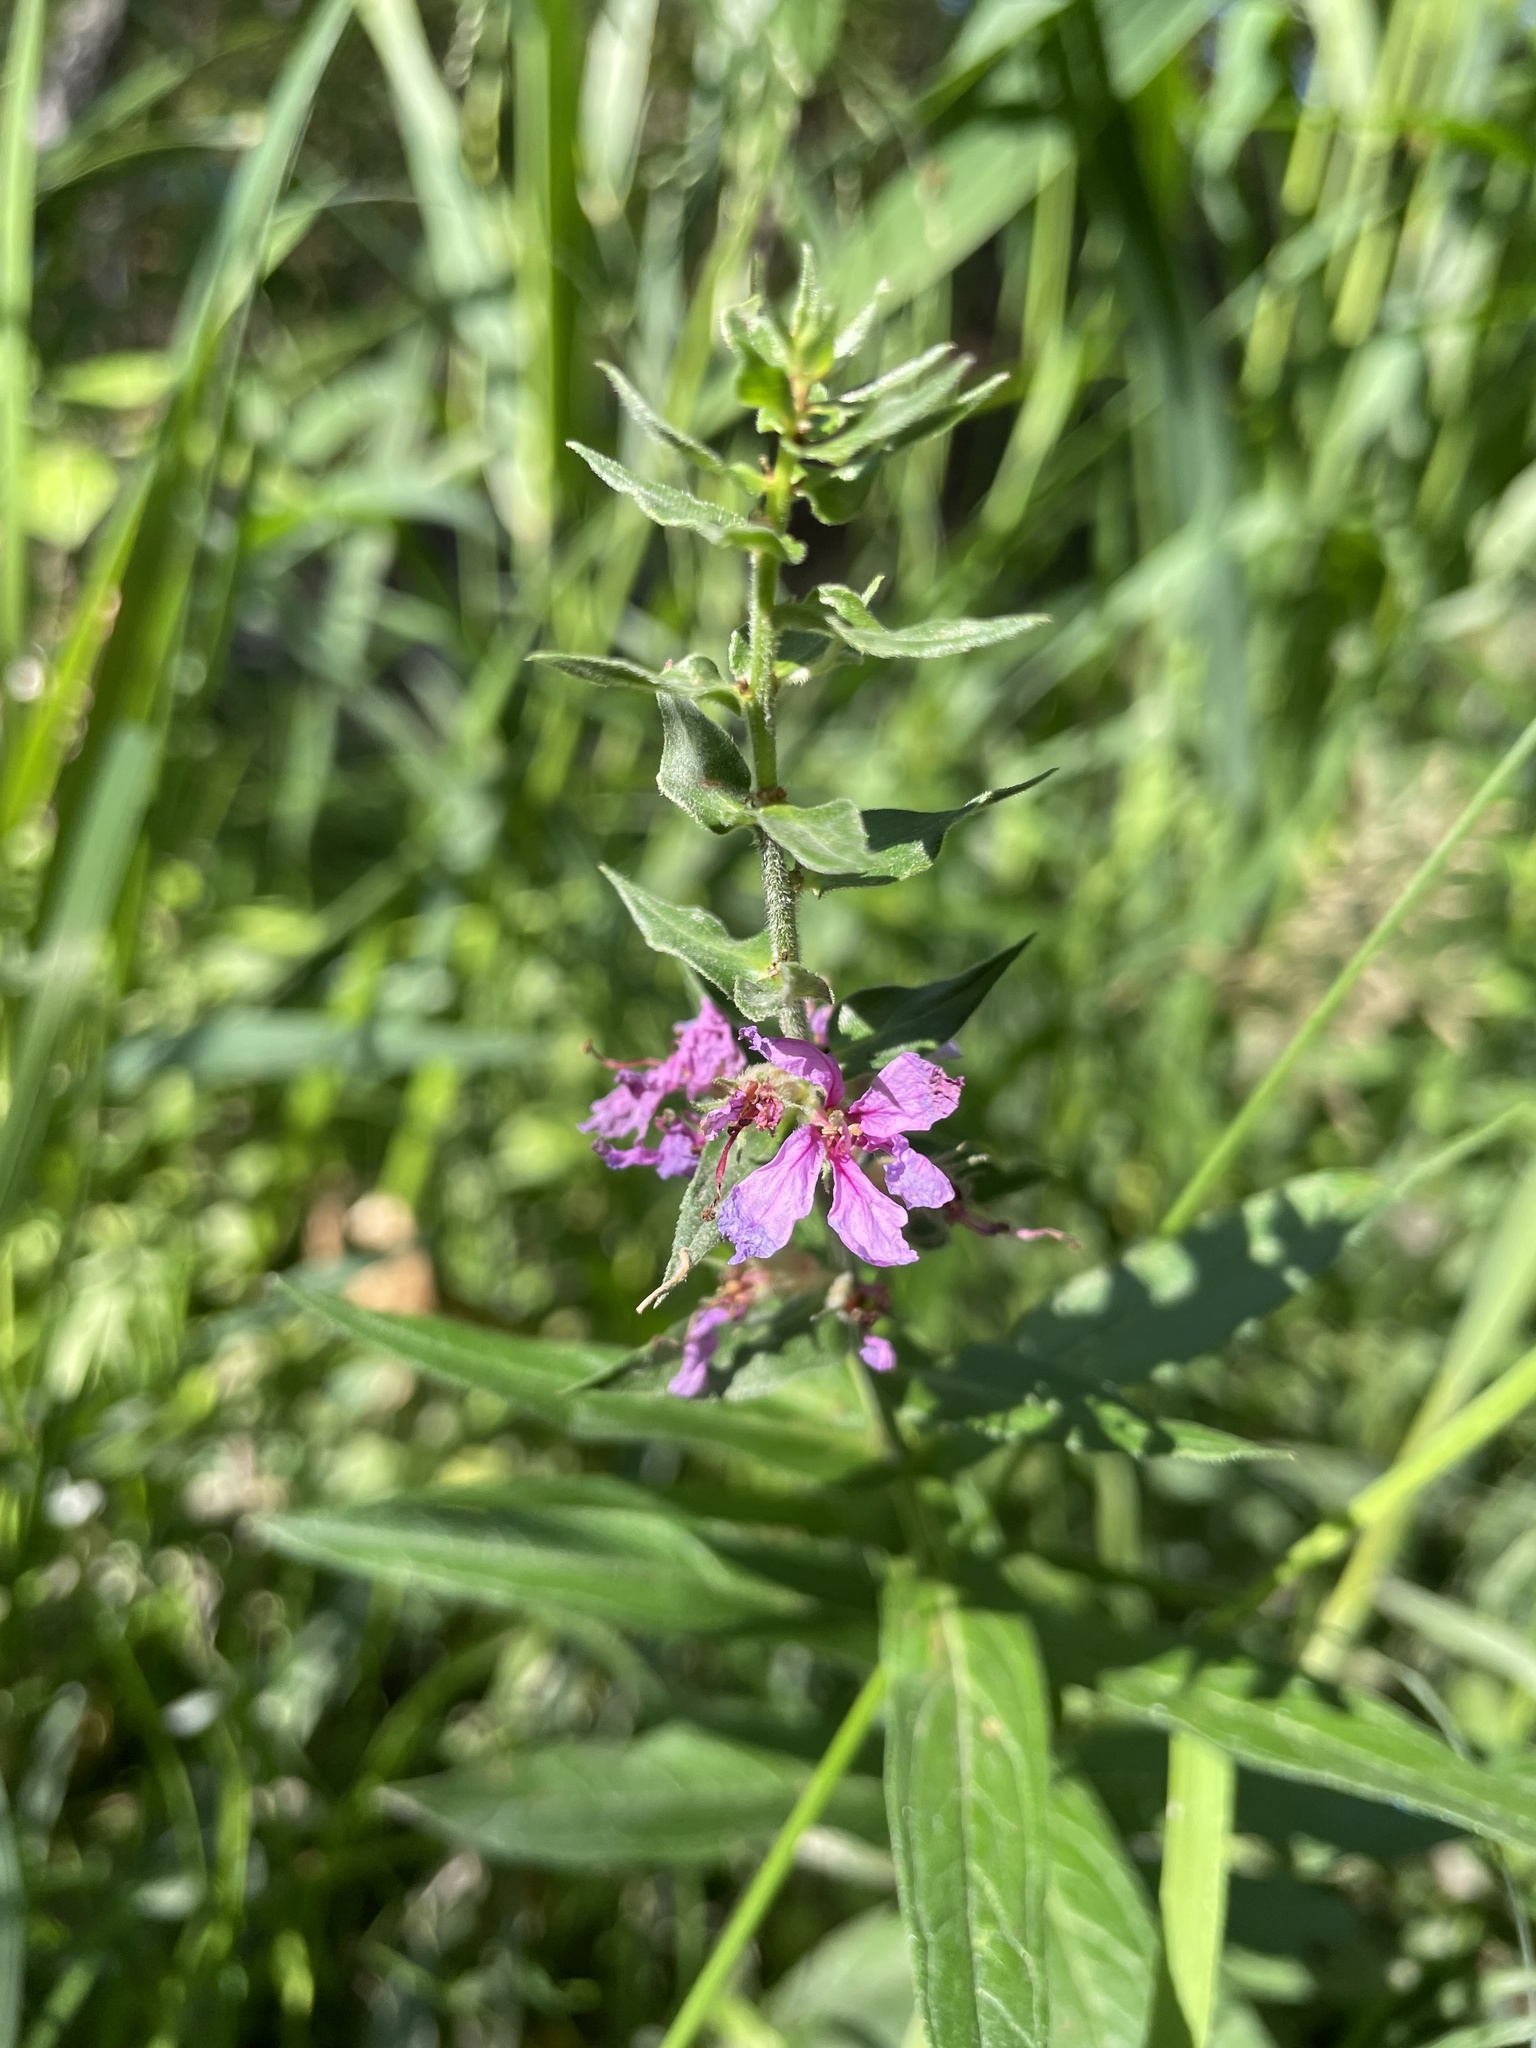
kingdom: Plantae
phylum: Tracheophyta
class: Magnoliopsida
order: Myrtales
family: Lythraceae
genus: Lythrum
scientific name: Lythrum salicaria
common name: Purple loosestrife
